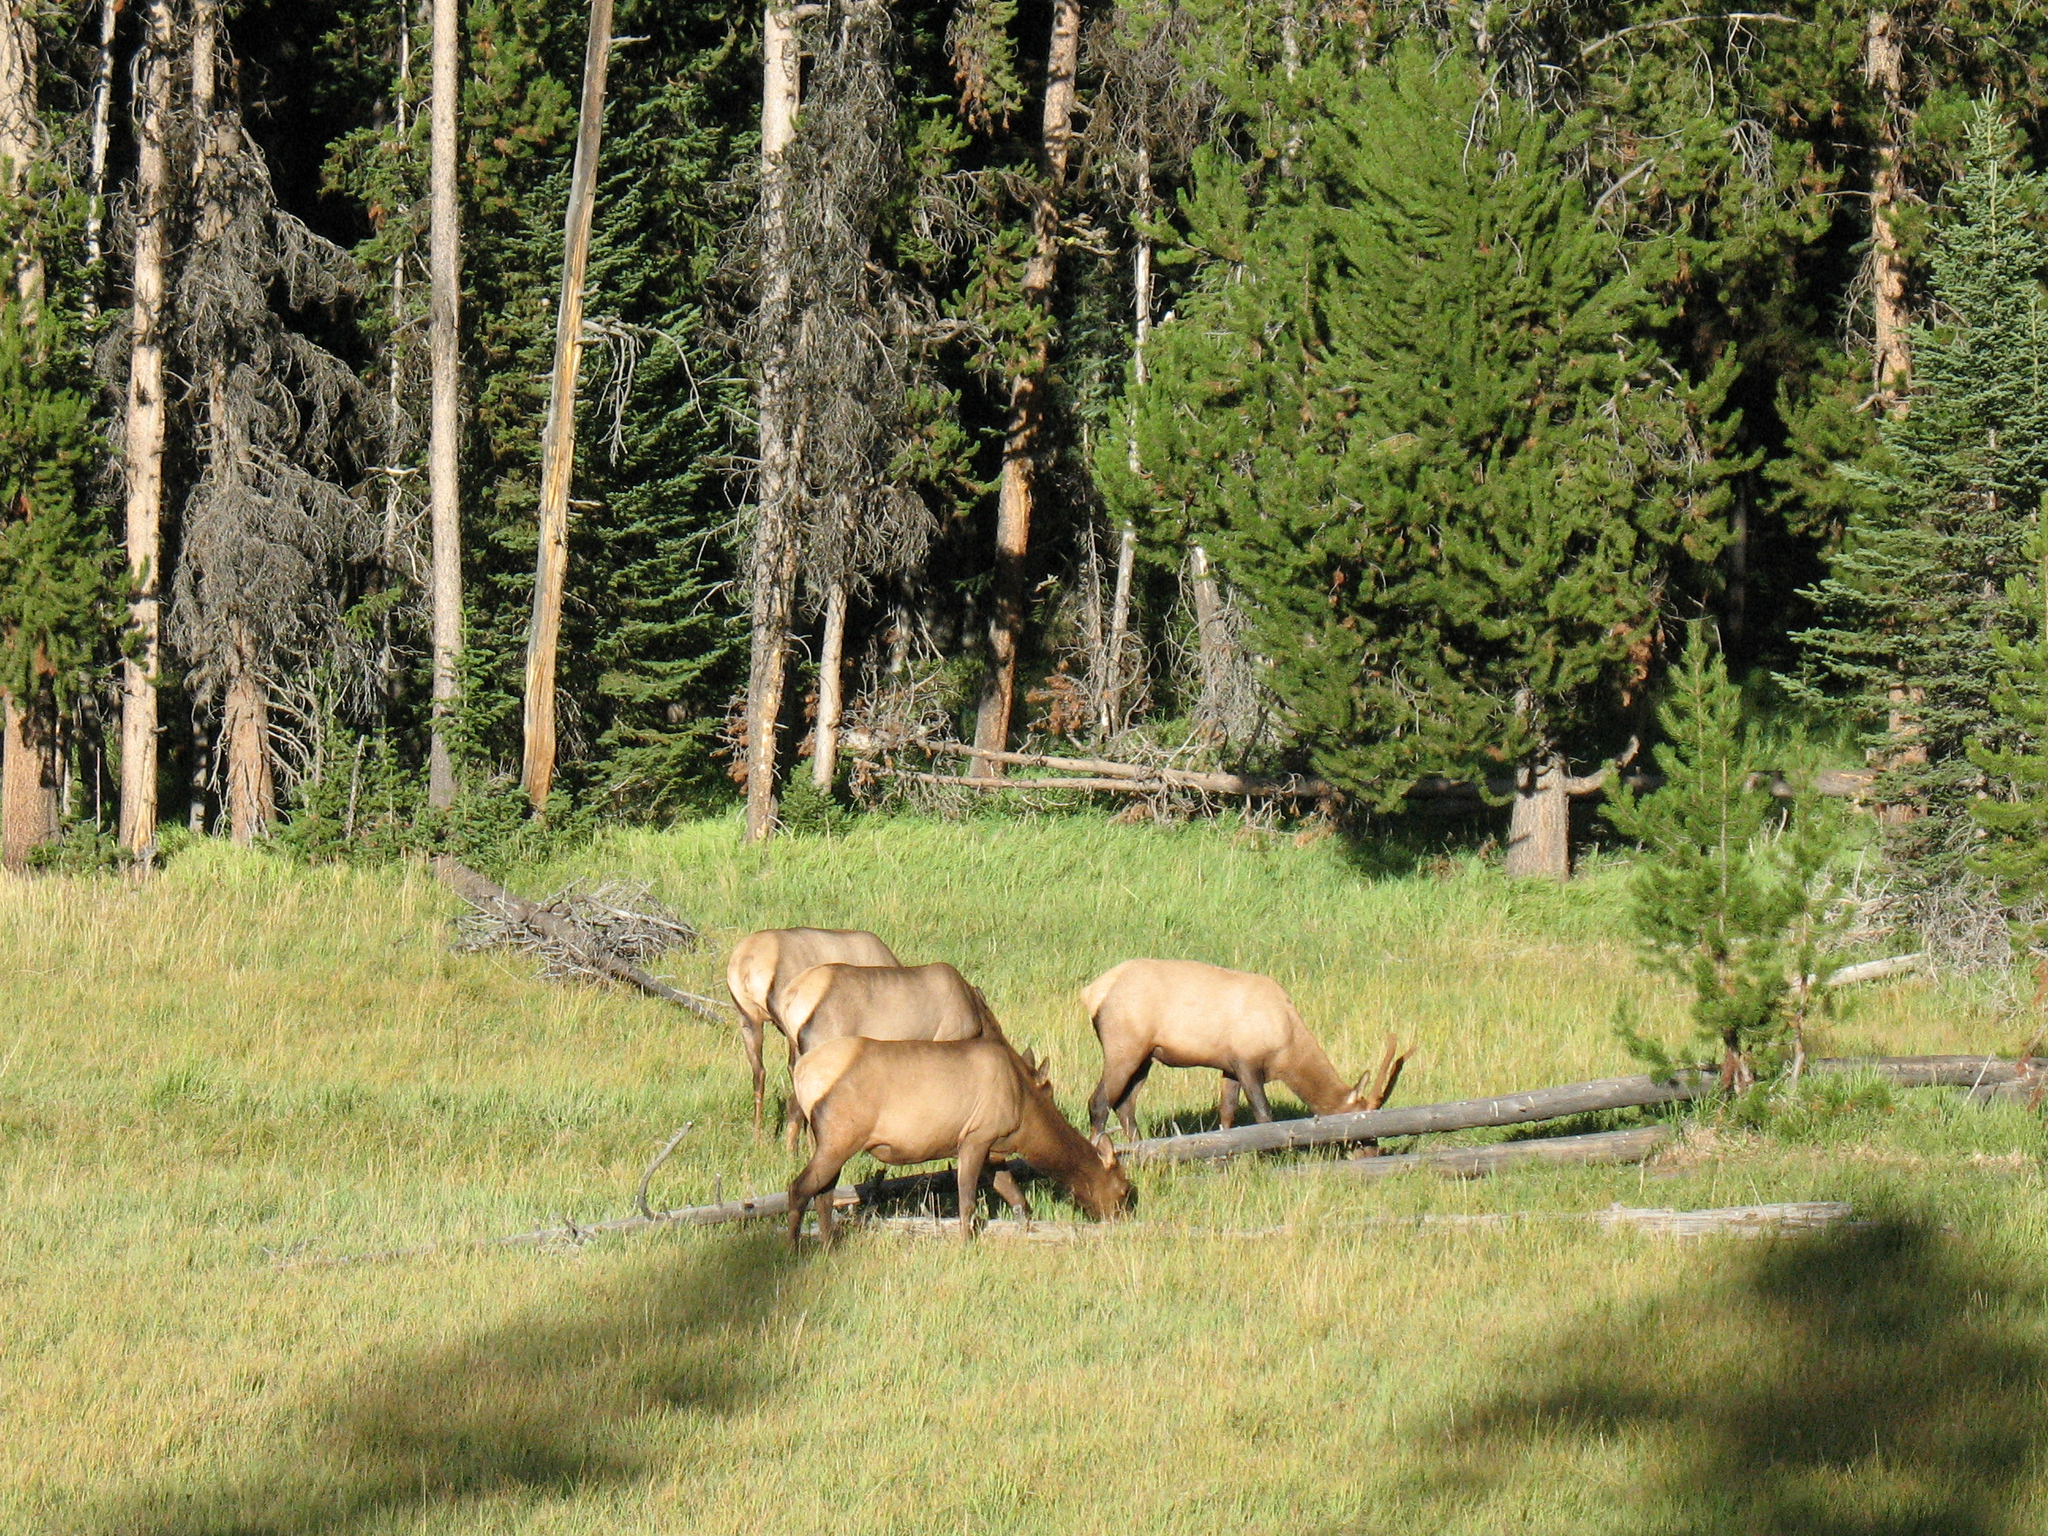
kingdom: Animalia
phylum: Chordata
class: Mammalia
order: Artiodactyla
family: Cervidae
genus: Cervus
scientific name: Cervus elaphus
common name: Red deer
